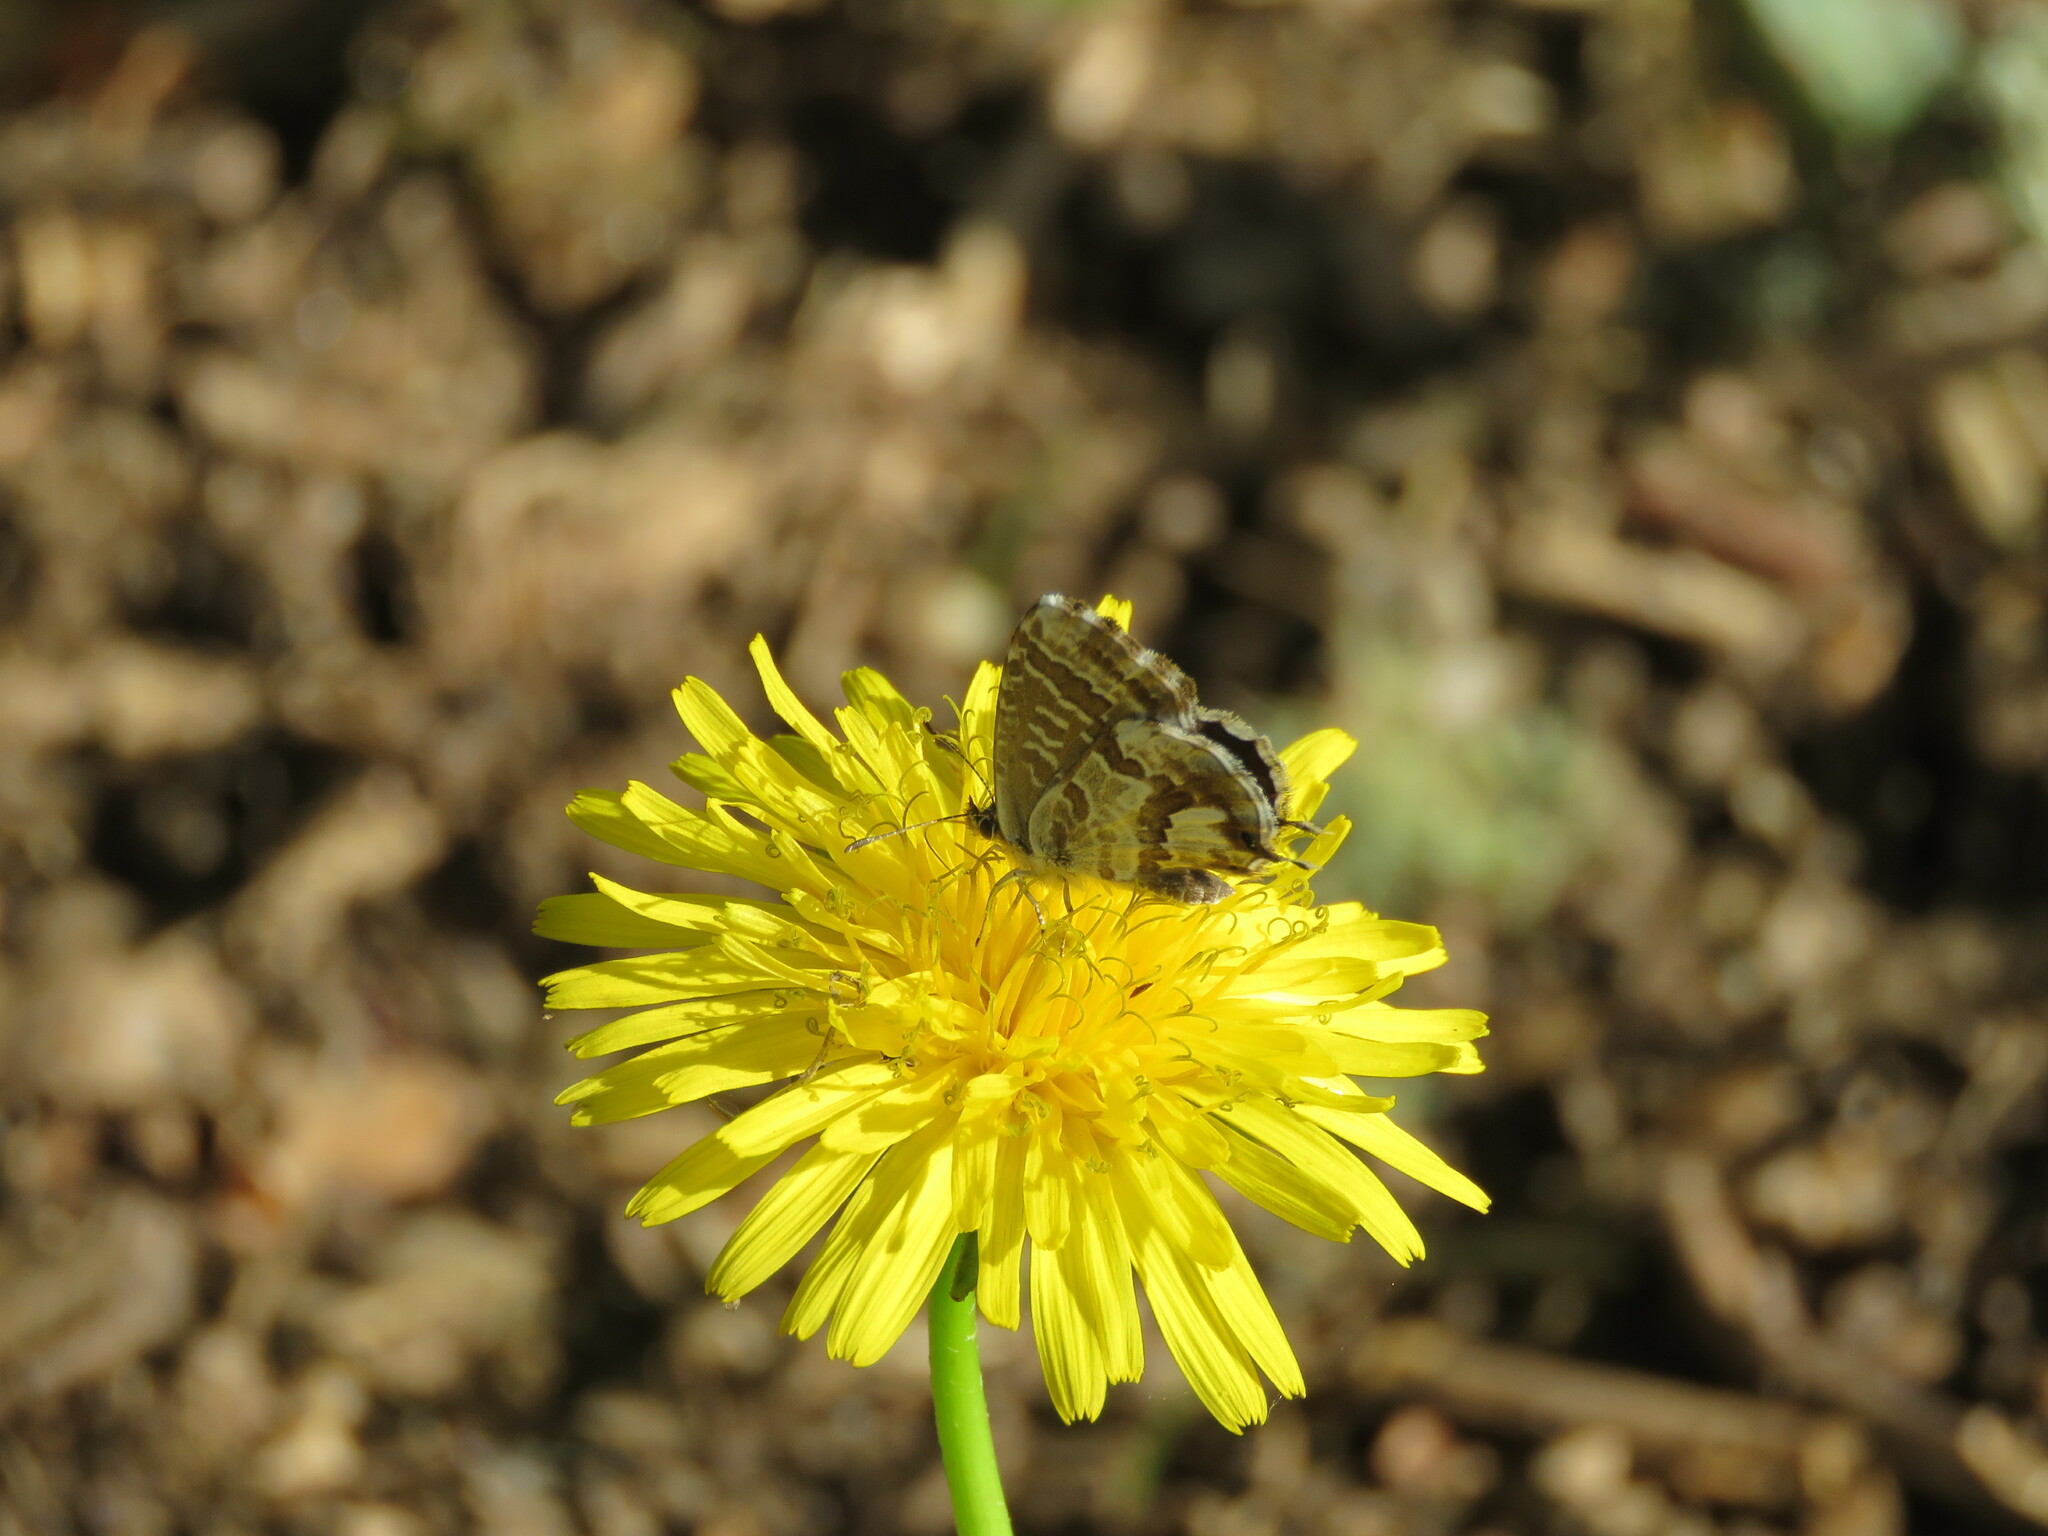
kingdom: Animalia
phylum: Arthropoda
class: Insecta
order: Lepidoptera
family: Lycaenidae
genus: Cacyreus
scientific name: Cacyreus marshalli
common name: Geranium bronze
